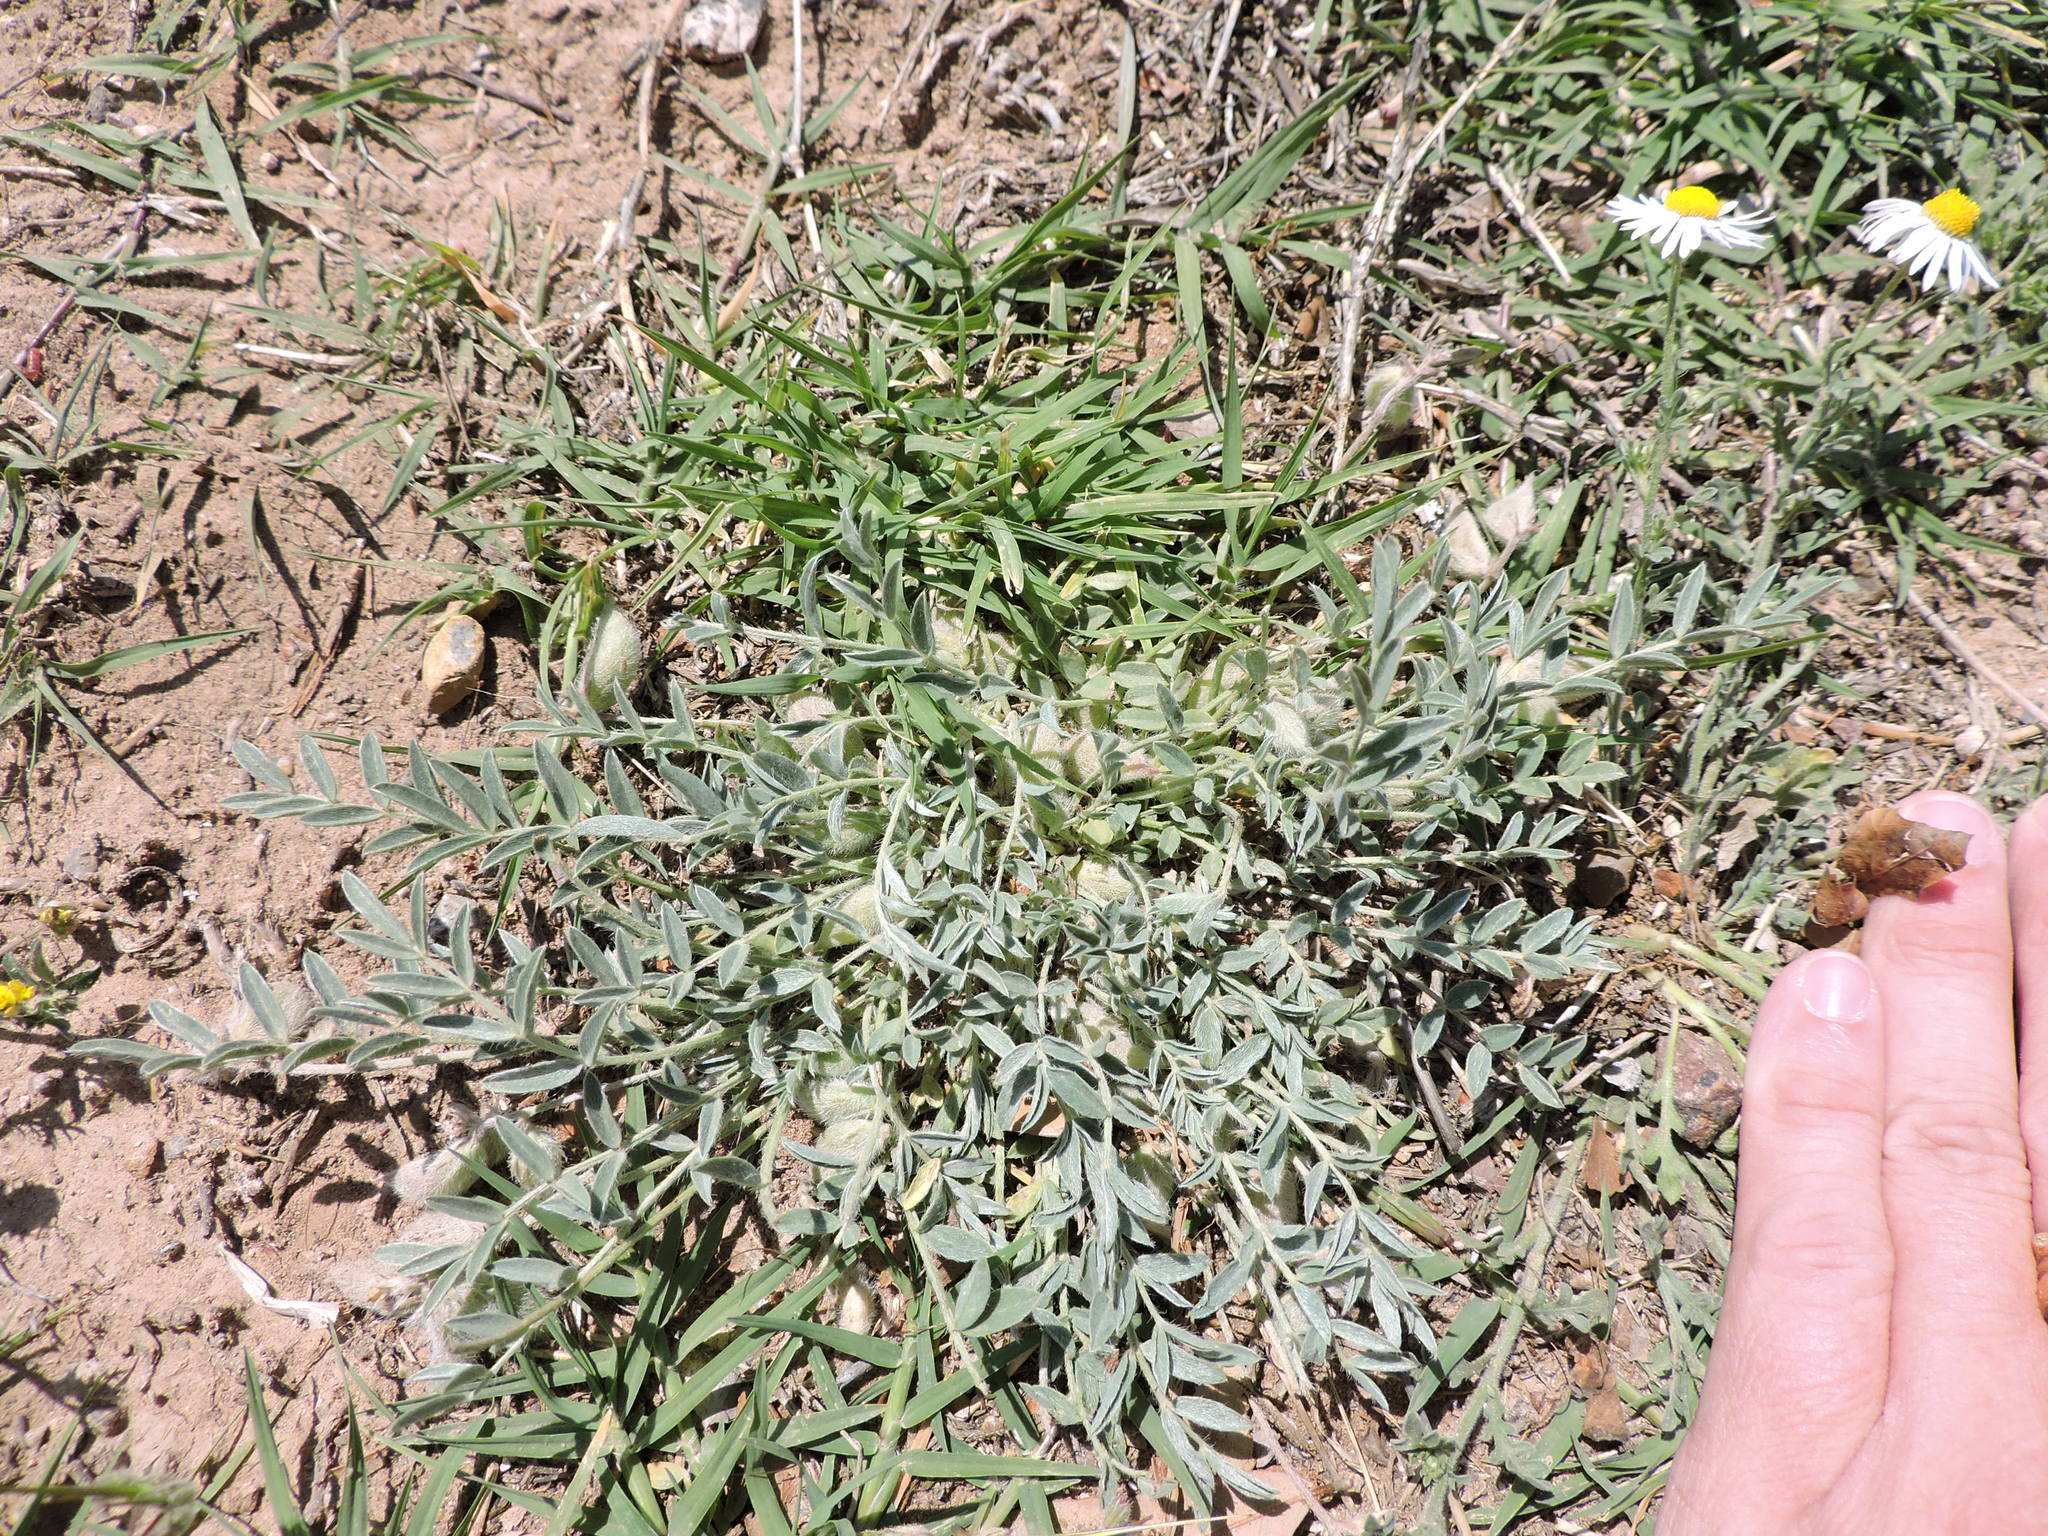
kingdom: Plantae
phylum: Tracheophyta
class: Magnoliopsida
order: Fabales
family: Fabaceae
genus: Astragalus
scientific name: Astragalus lotiflorus
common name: Lotus milk-vetch
